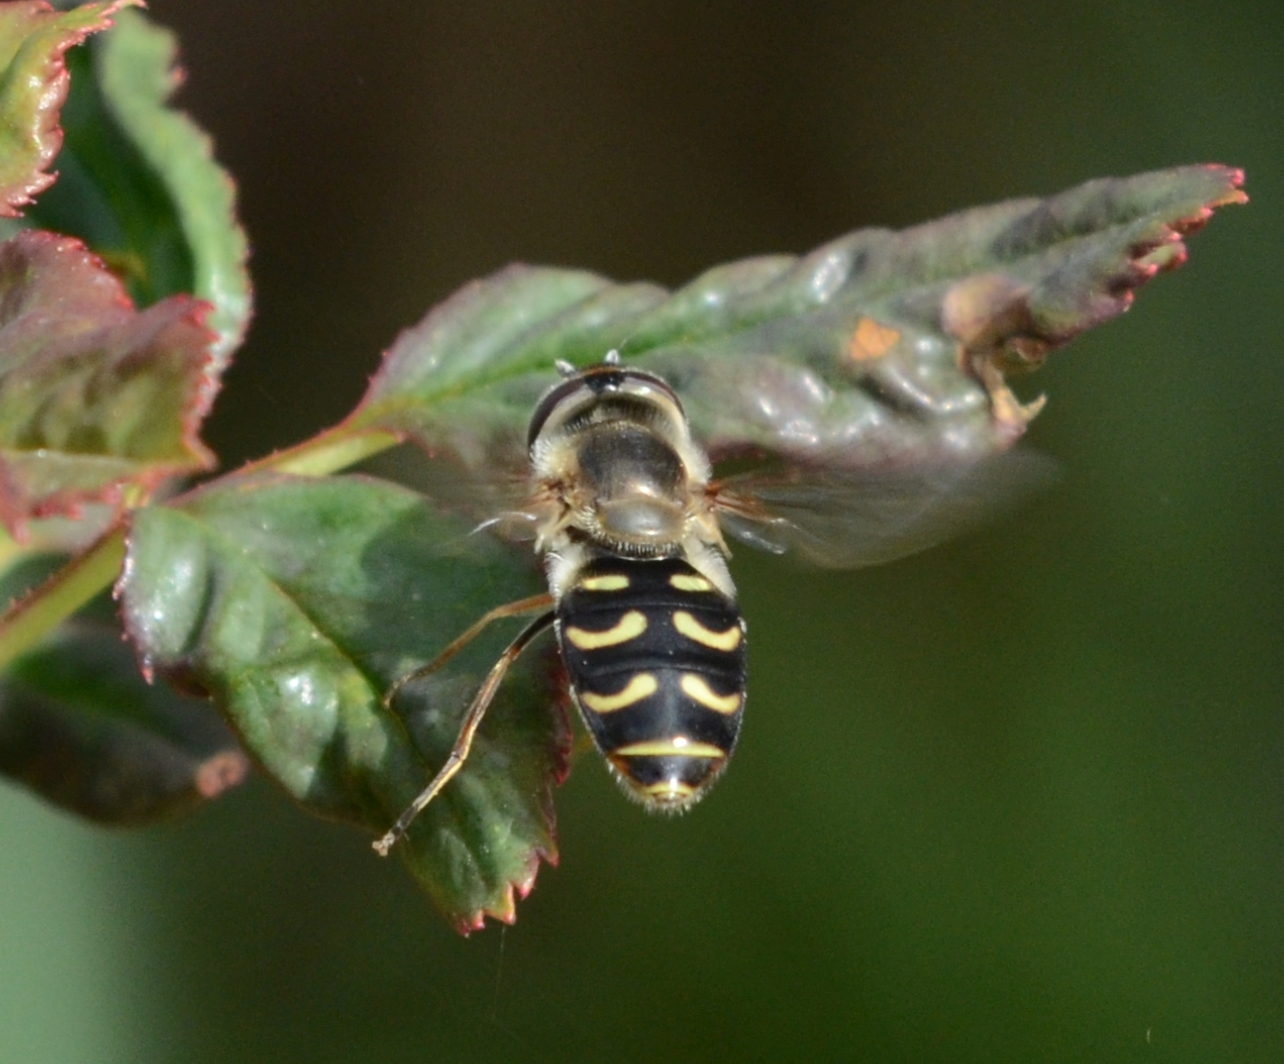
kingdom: Animalia
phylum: Arthropoda
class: Insecta
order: Diptera
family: Syrphidae
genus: Scaeva
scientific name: Scaeva selenitica
